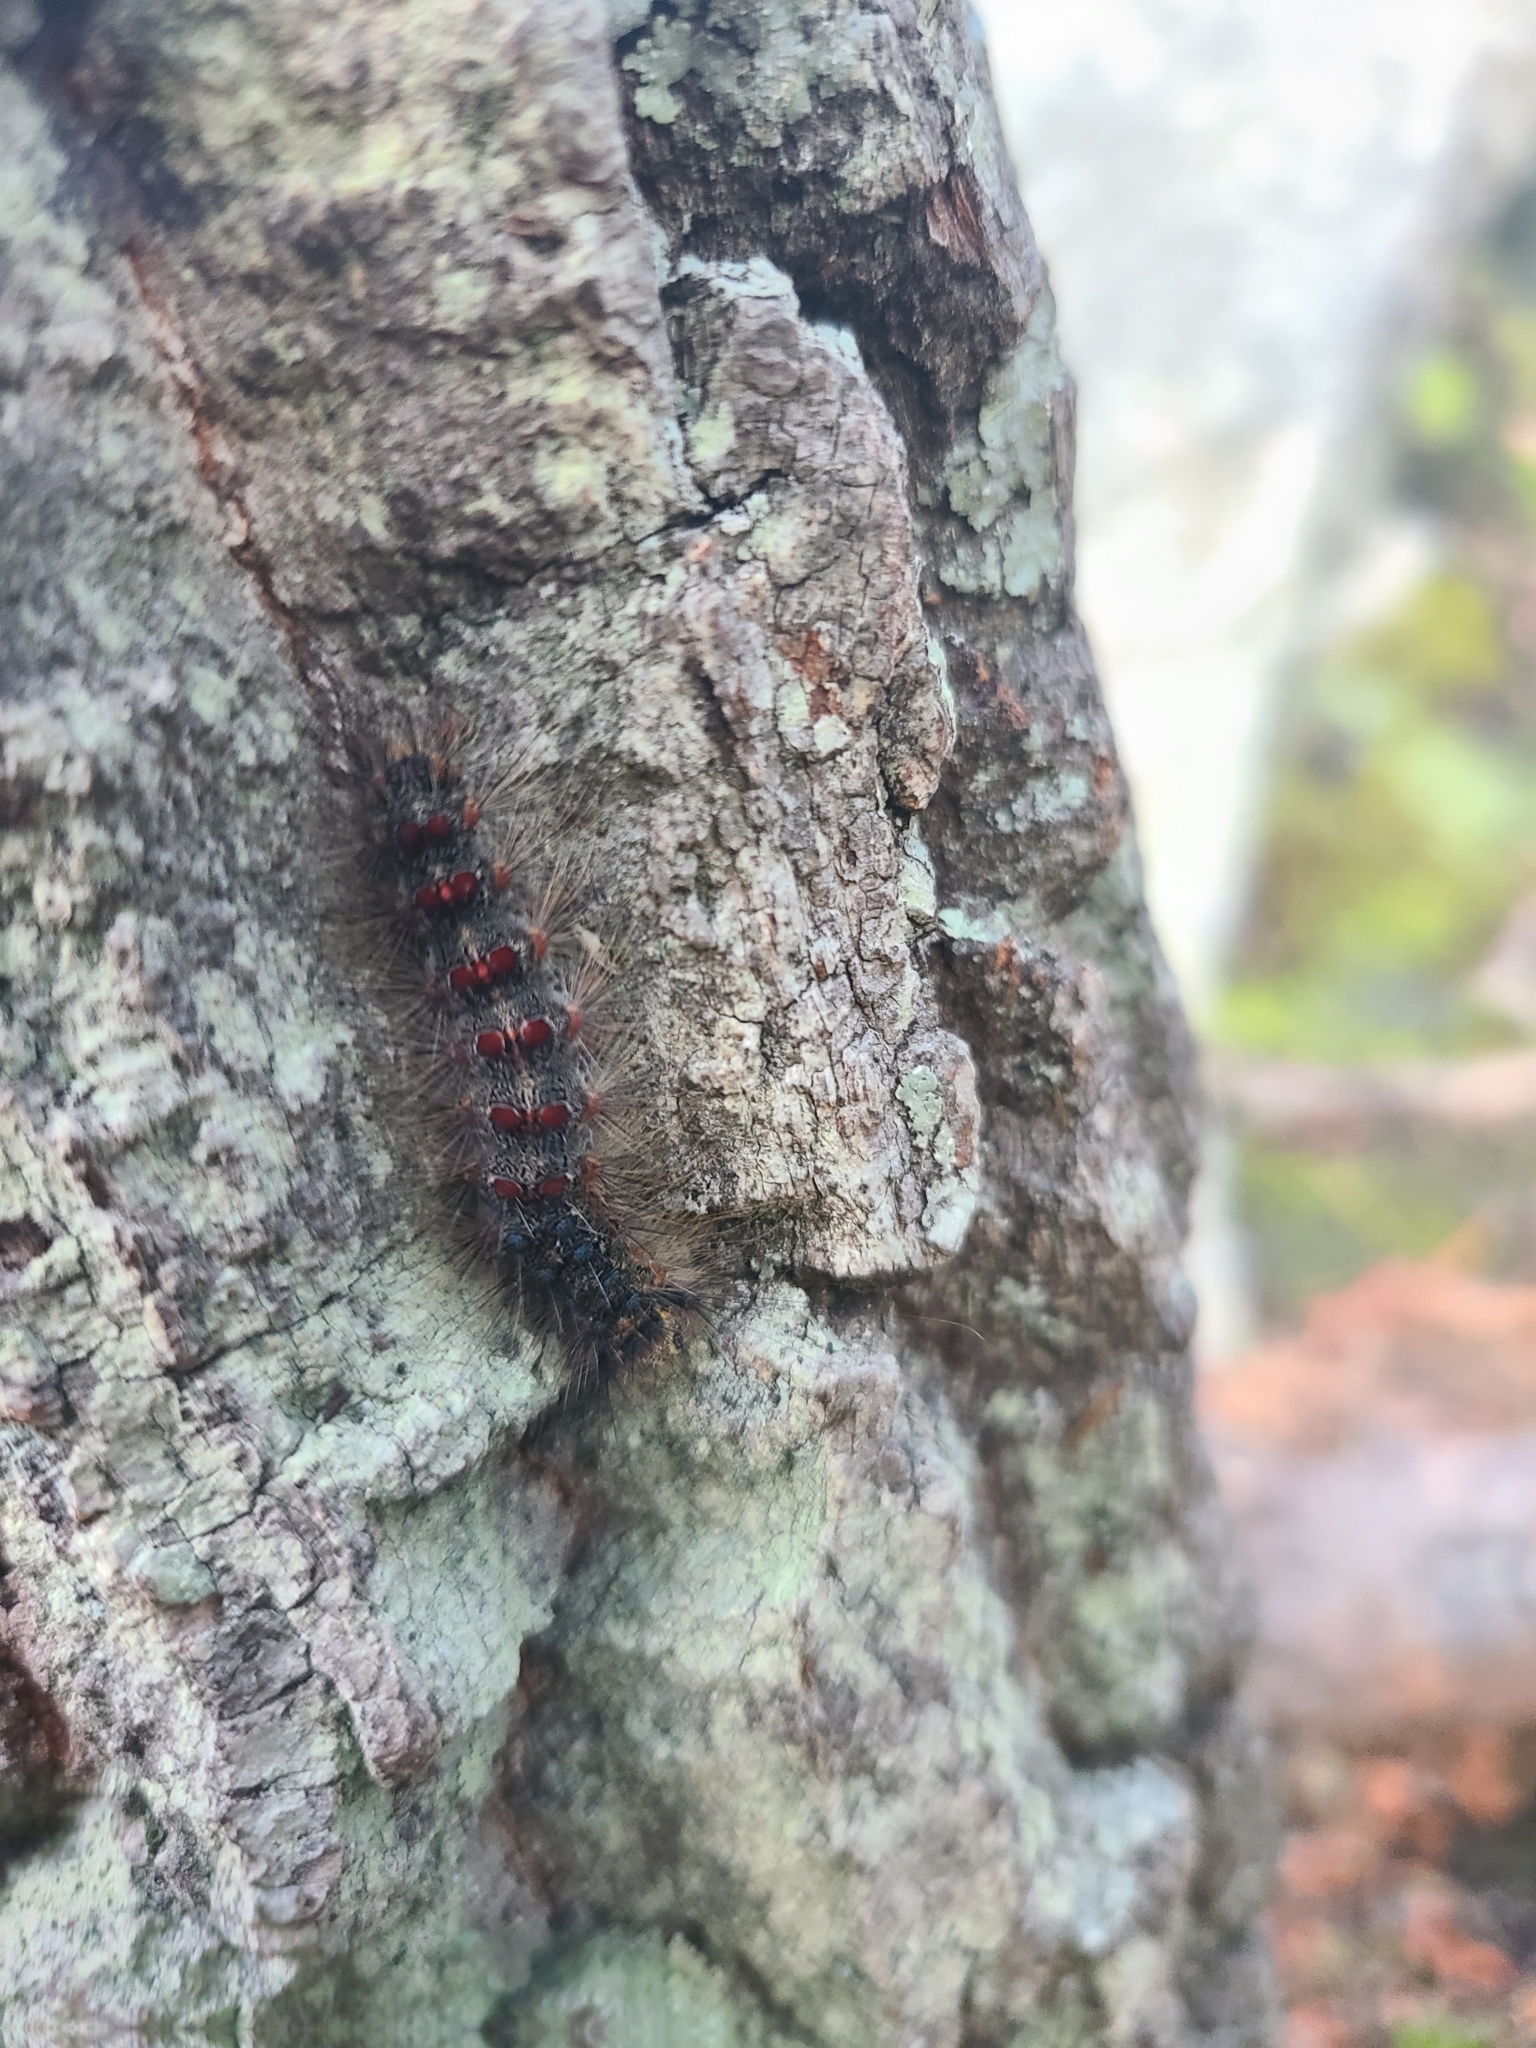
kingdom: Animalia
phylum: Arthropoda
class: Insecta
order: Lepidoptera
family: Erebidae
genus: Lymantria
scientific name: Lymantria dispar
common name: Gypsy moth
